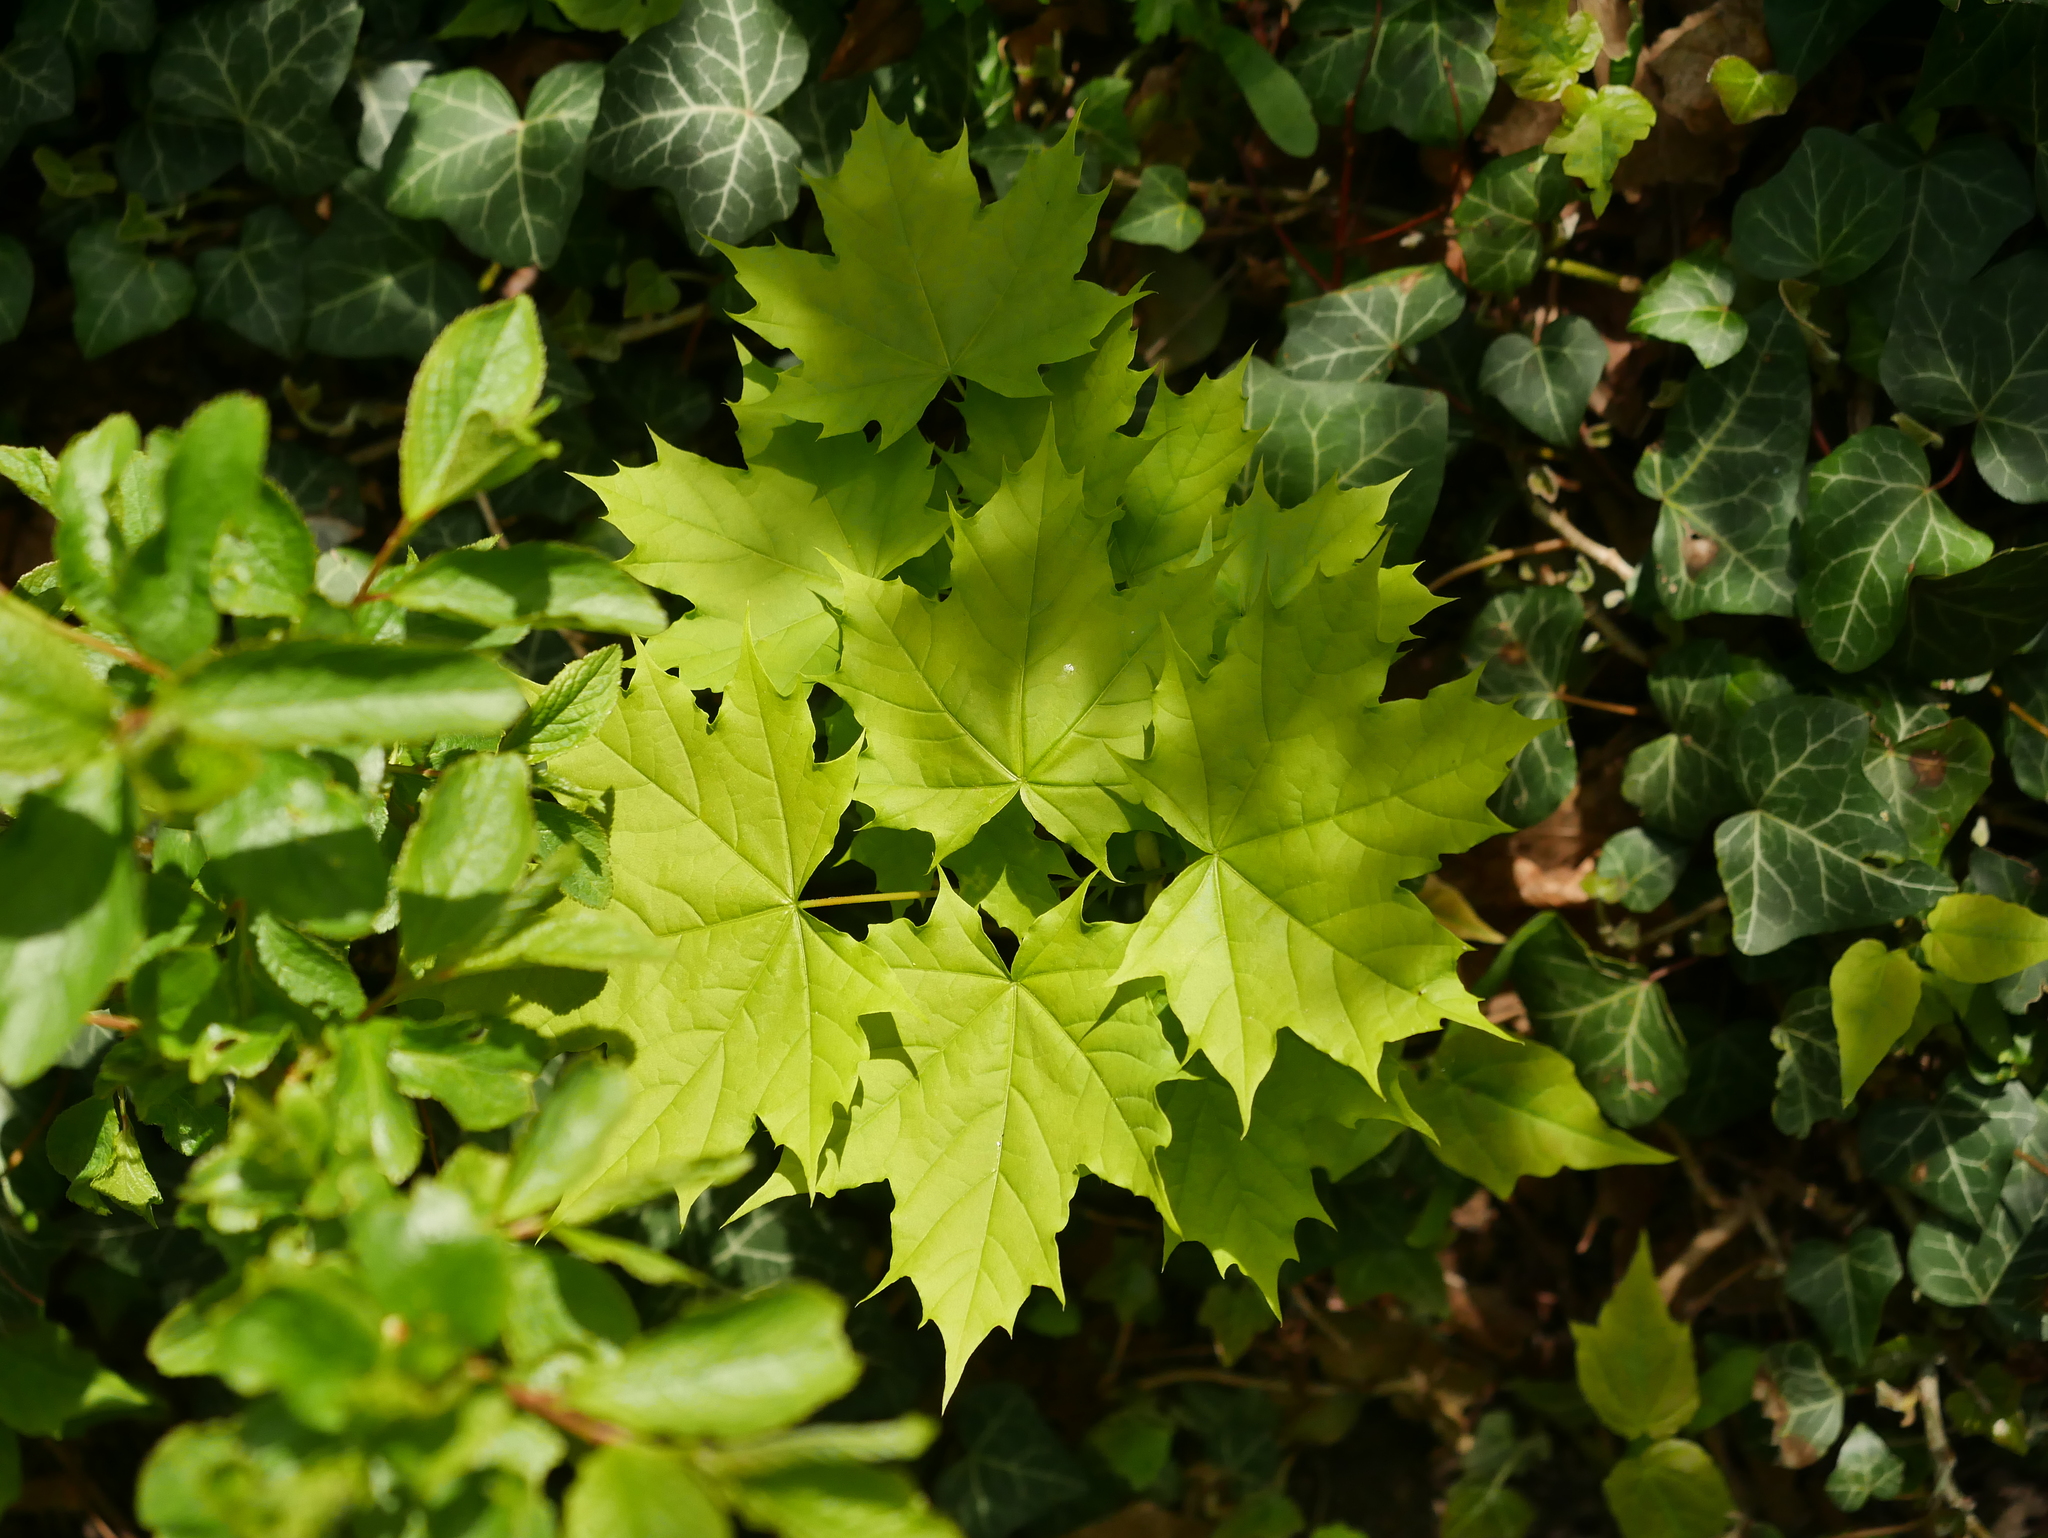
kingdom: Plantae
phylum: Tracheophyta
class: Magnoliopsida
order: Sapindales
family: Sapindaceae
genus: Acer
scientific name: Acer platanoides
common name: Norway maple
